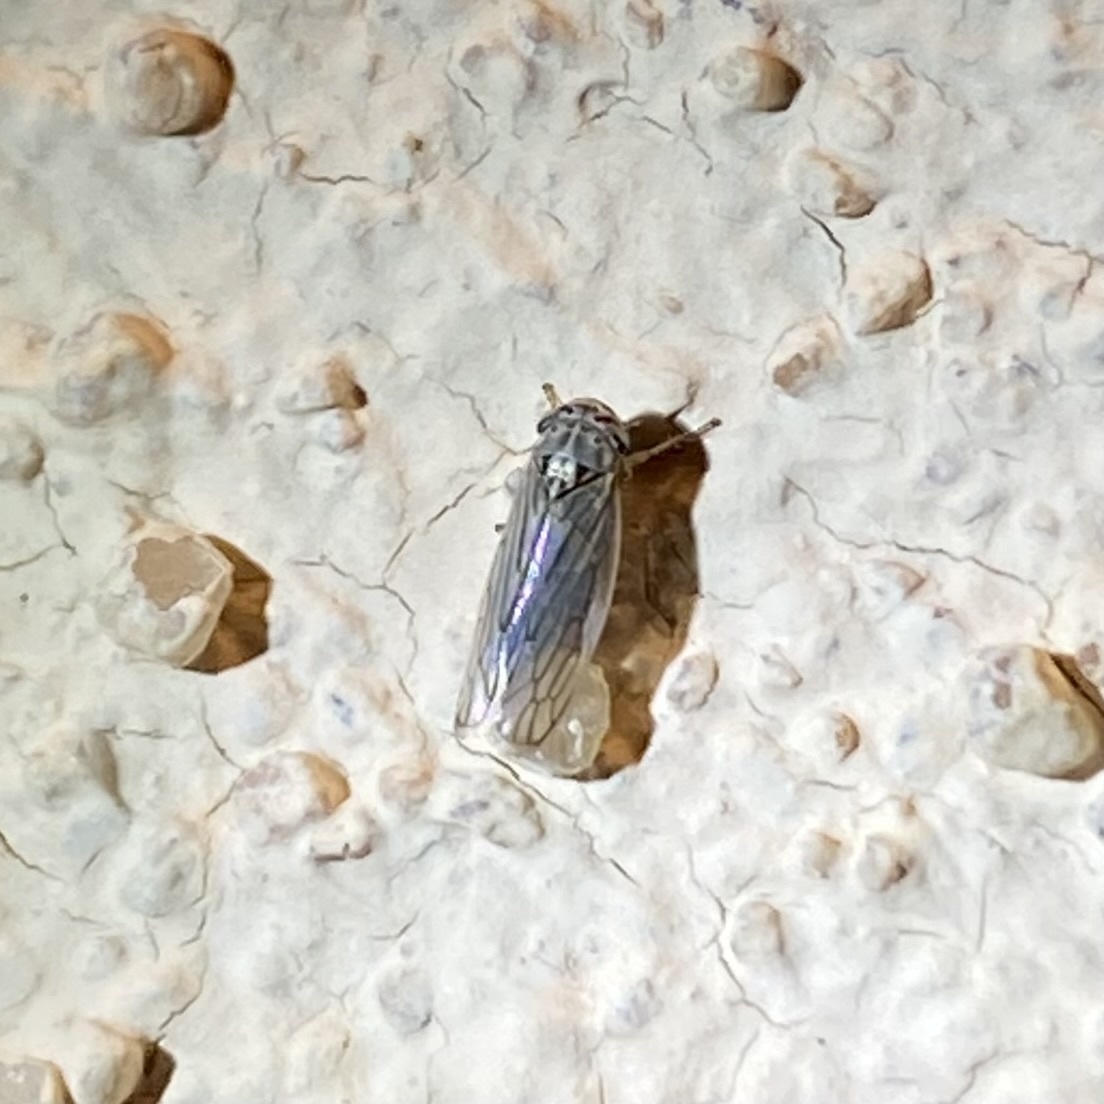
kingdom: Animalia
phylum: Arthropoda
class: Insecta
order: Hemiptera
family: Cicadellidae
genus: Exitianus
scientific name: Exitianus
